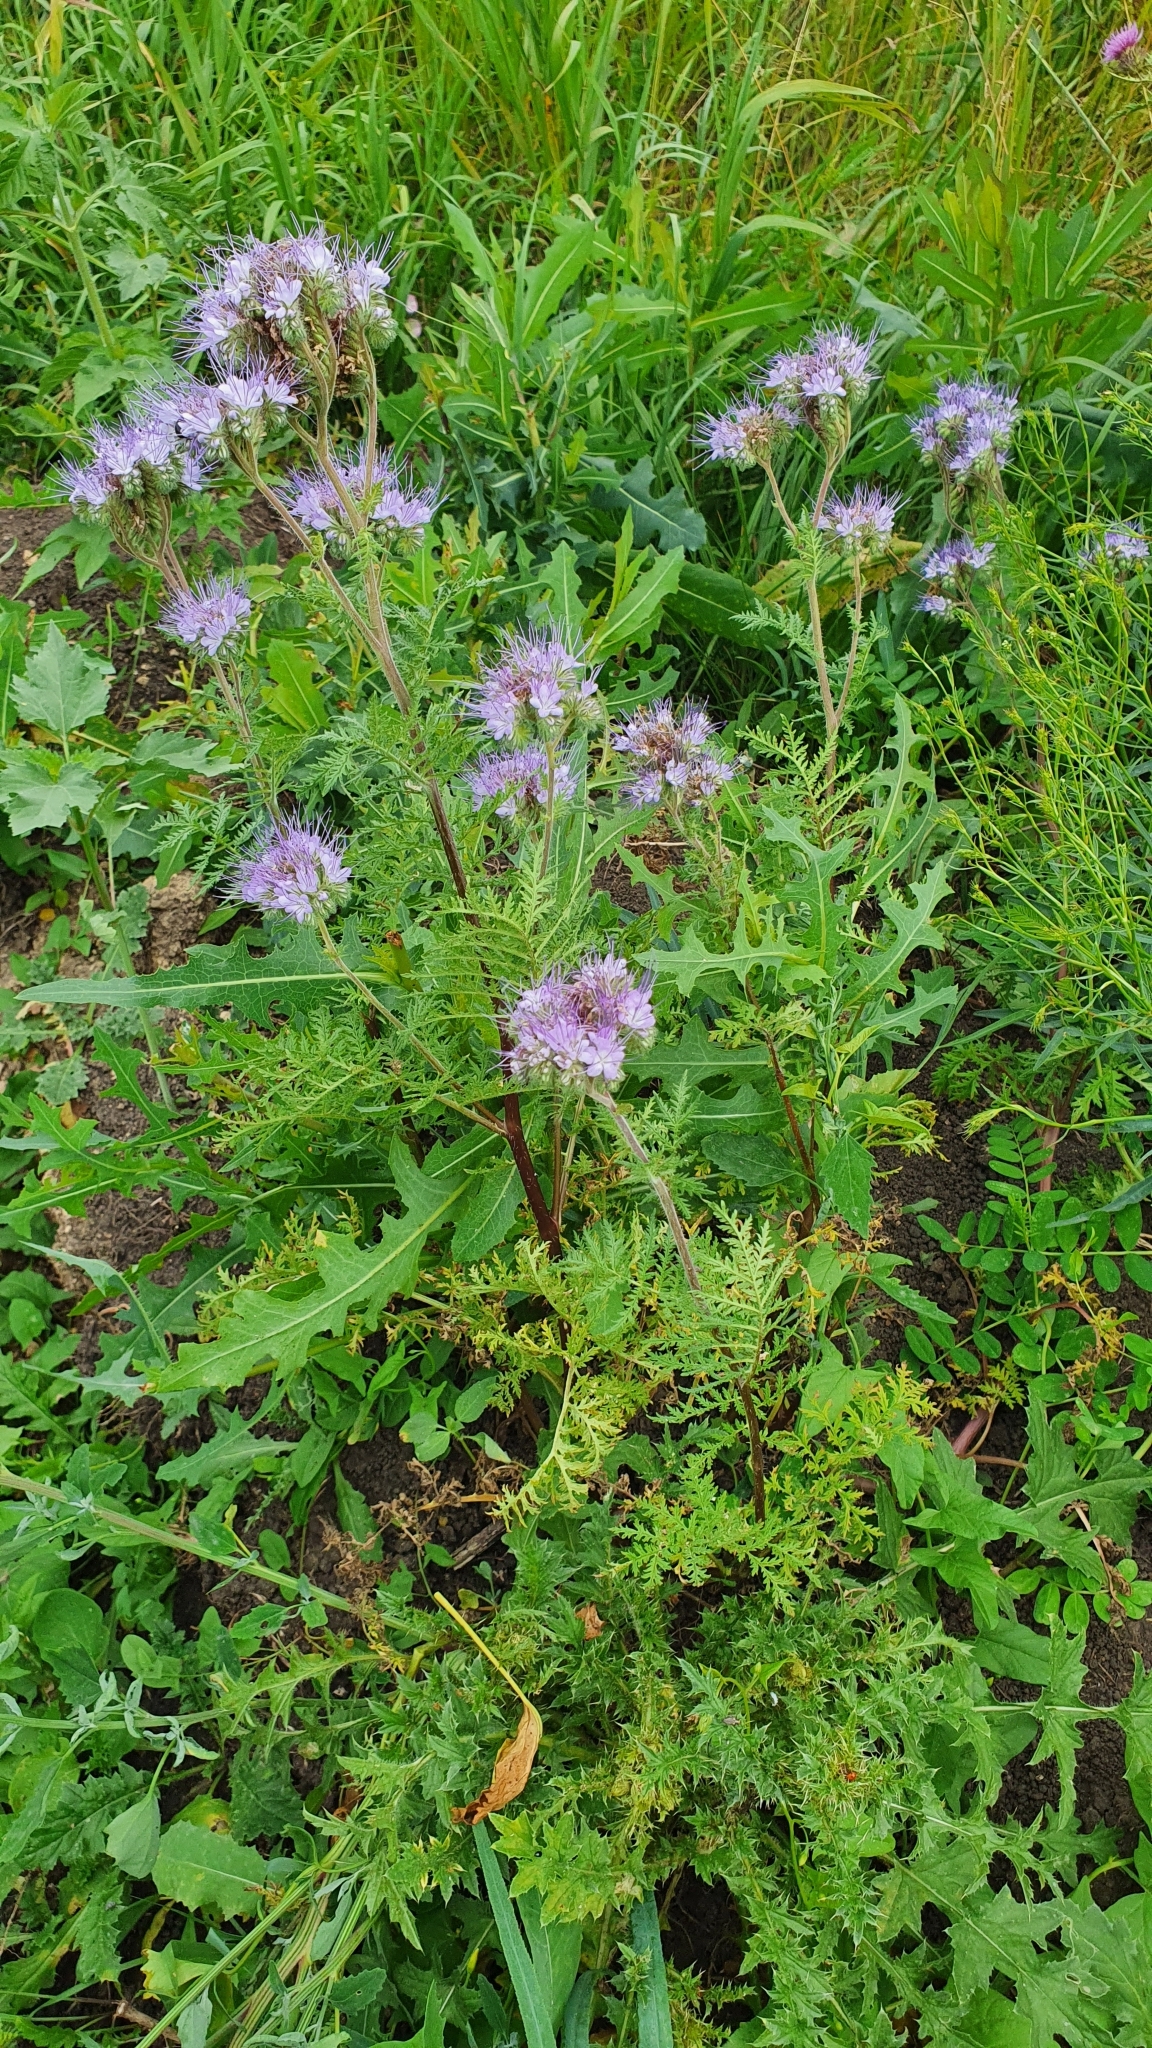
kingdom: Plantae
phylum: Tracheophyta
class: Magnoliopsida
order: Boraginales
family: Hydrophyllaceae
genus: Phacelia
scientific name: Phacelia tanacetifolia
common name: Phacelia
